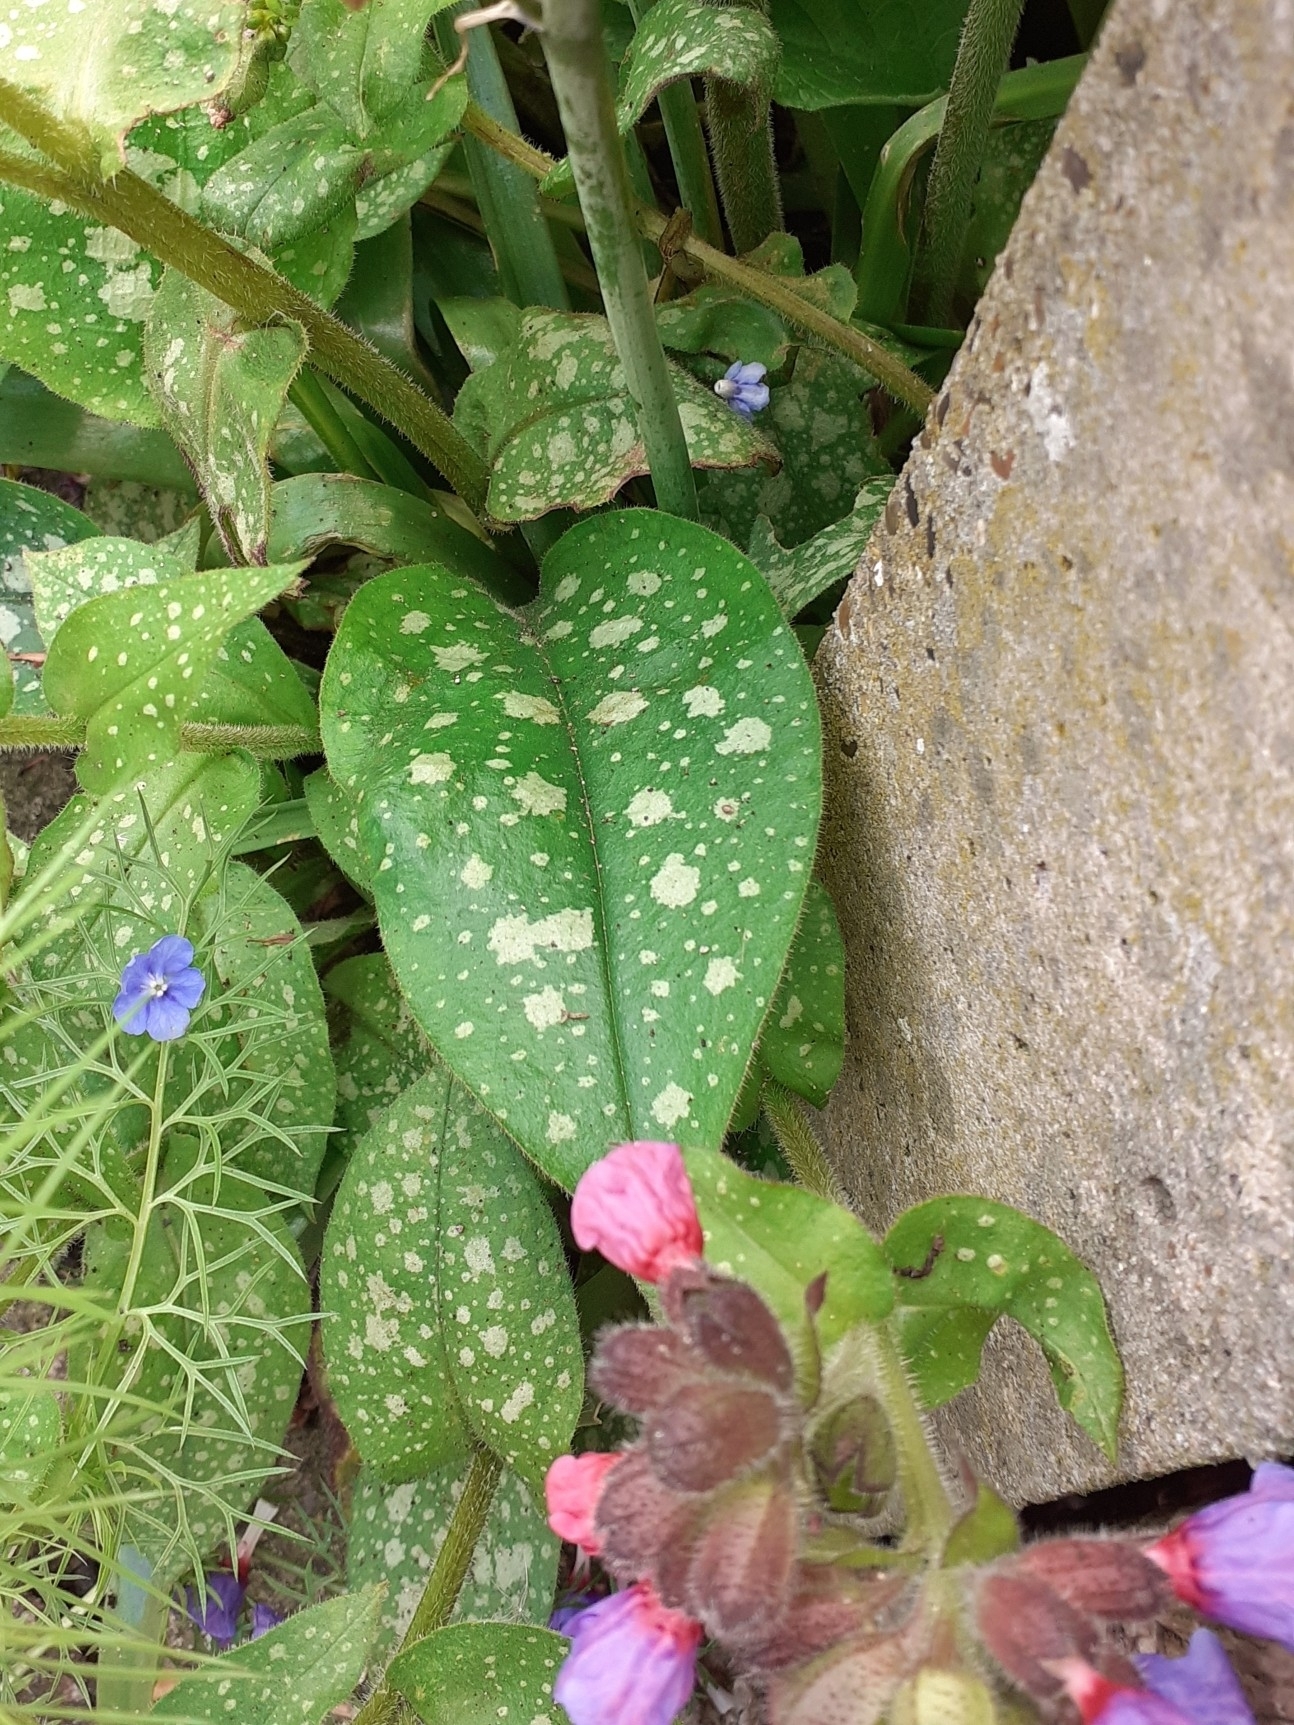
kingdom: Plantae
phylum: Tracheophyta
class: Magnoliopsida
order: Boraginales
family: Boraginaceae
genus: Pulmonaria
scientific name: Pulmonaria officinalis
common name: Lungwort
